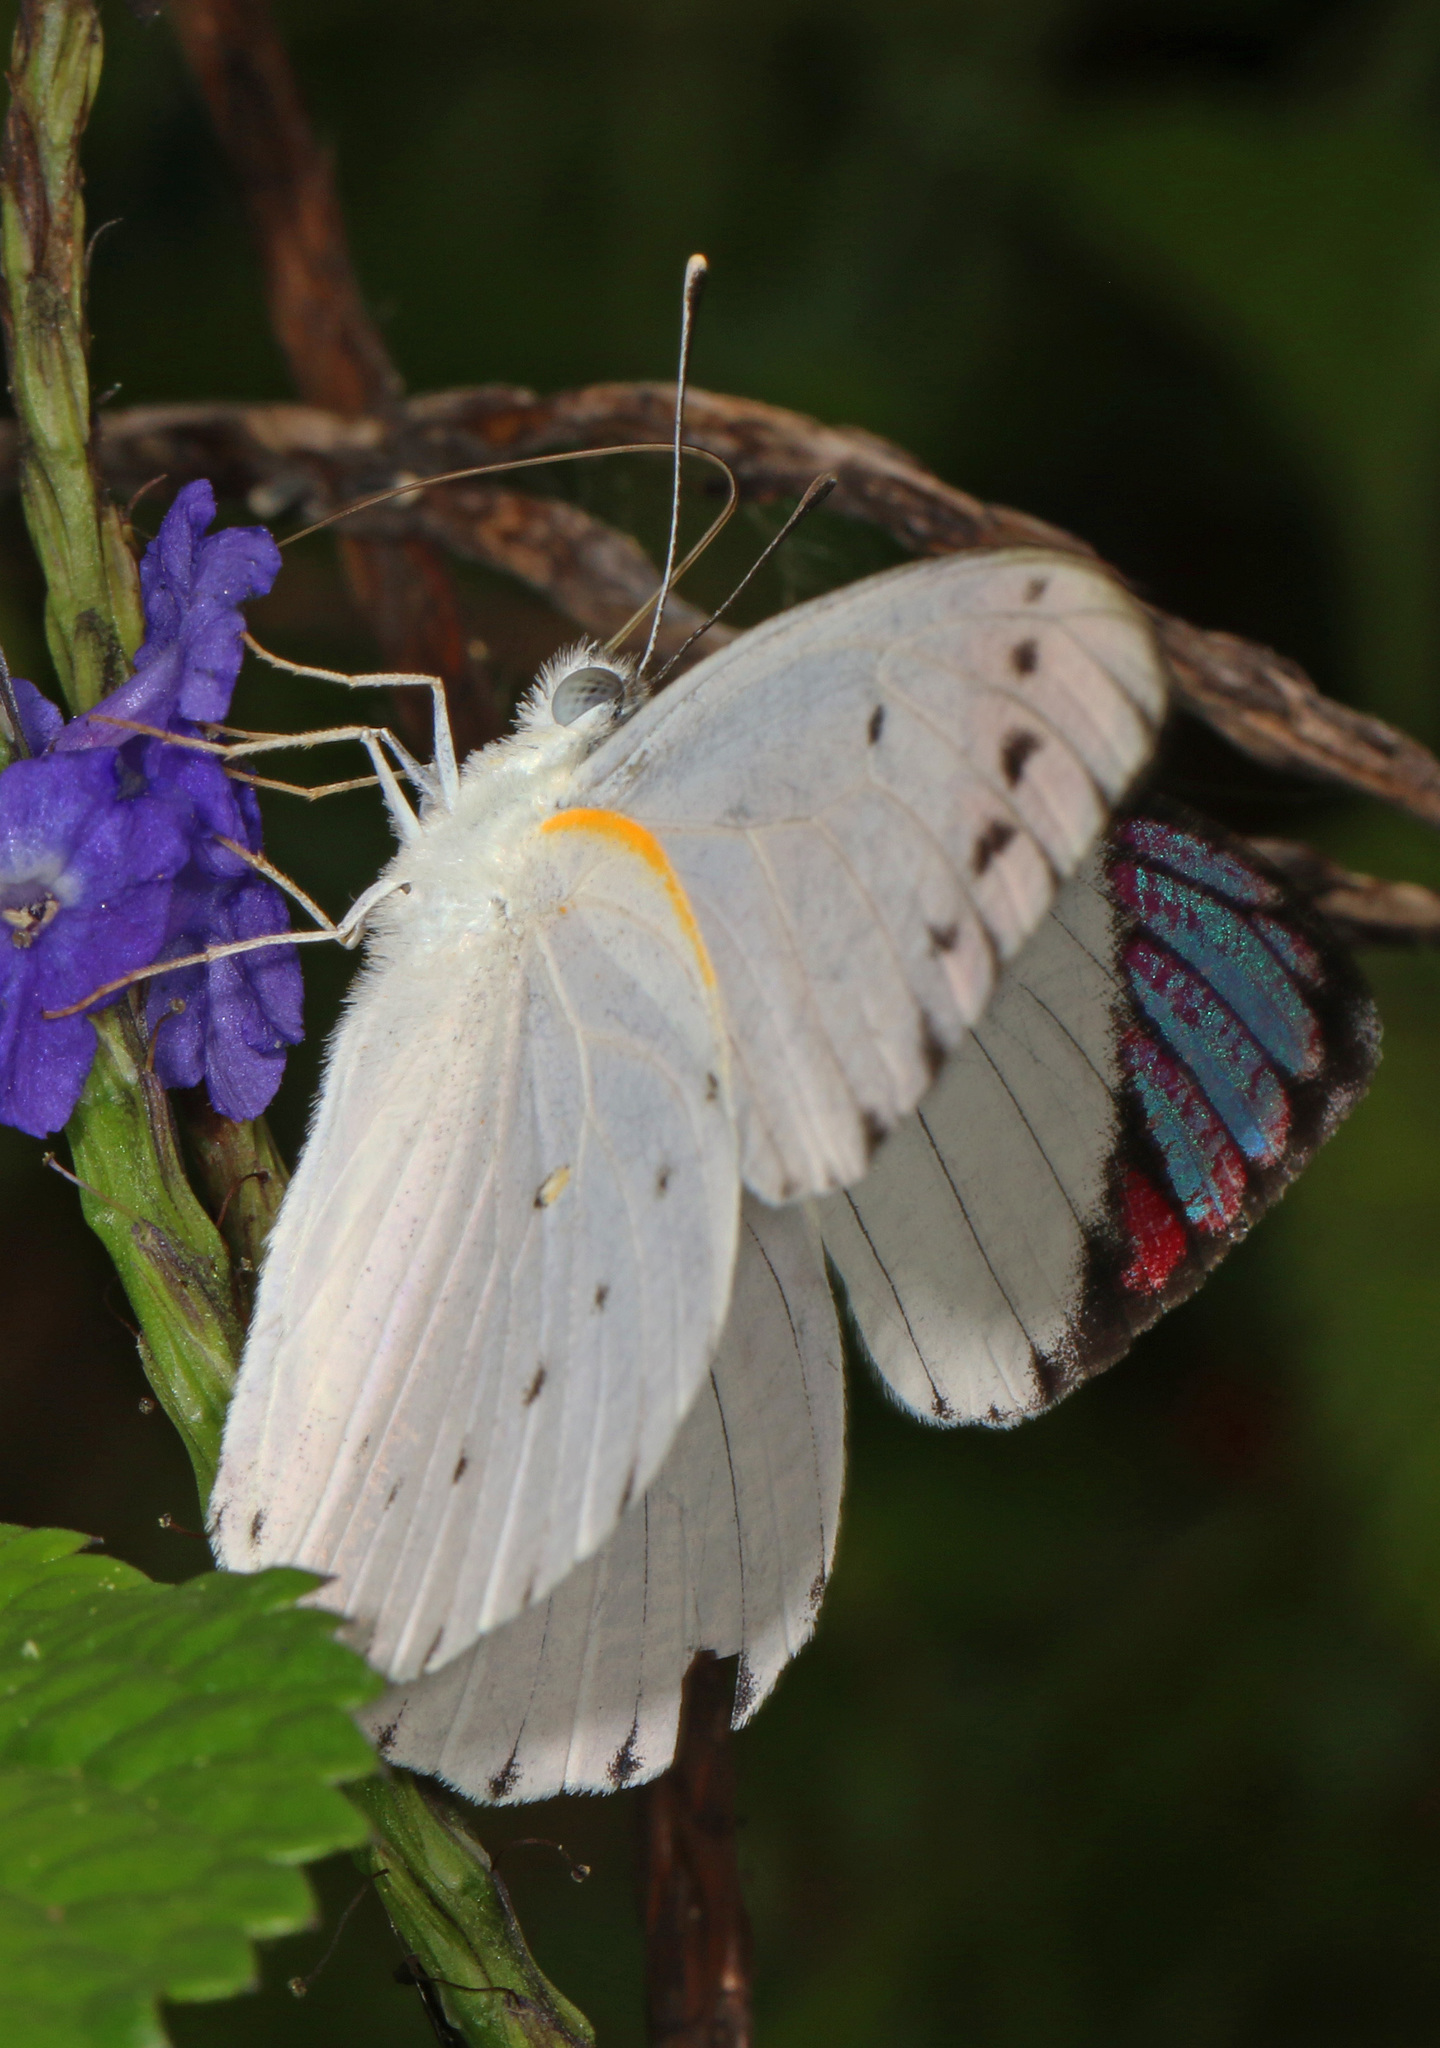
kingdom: Animalia
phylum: Arthropoda
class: Insecta
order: Lepidoptera
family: Pieridae
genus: Colotis
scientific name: Colotis regina
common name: Queen purple tip
